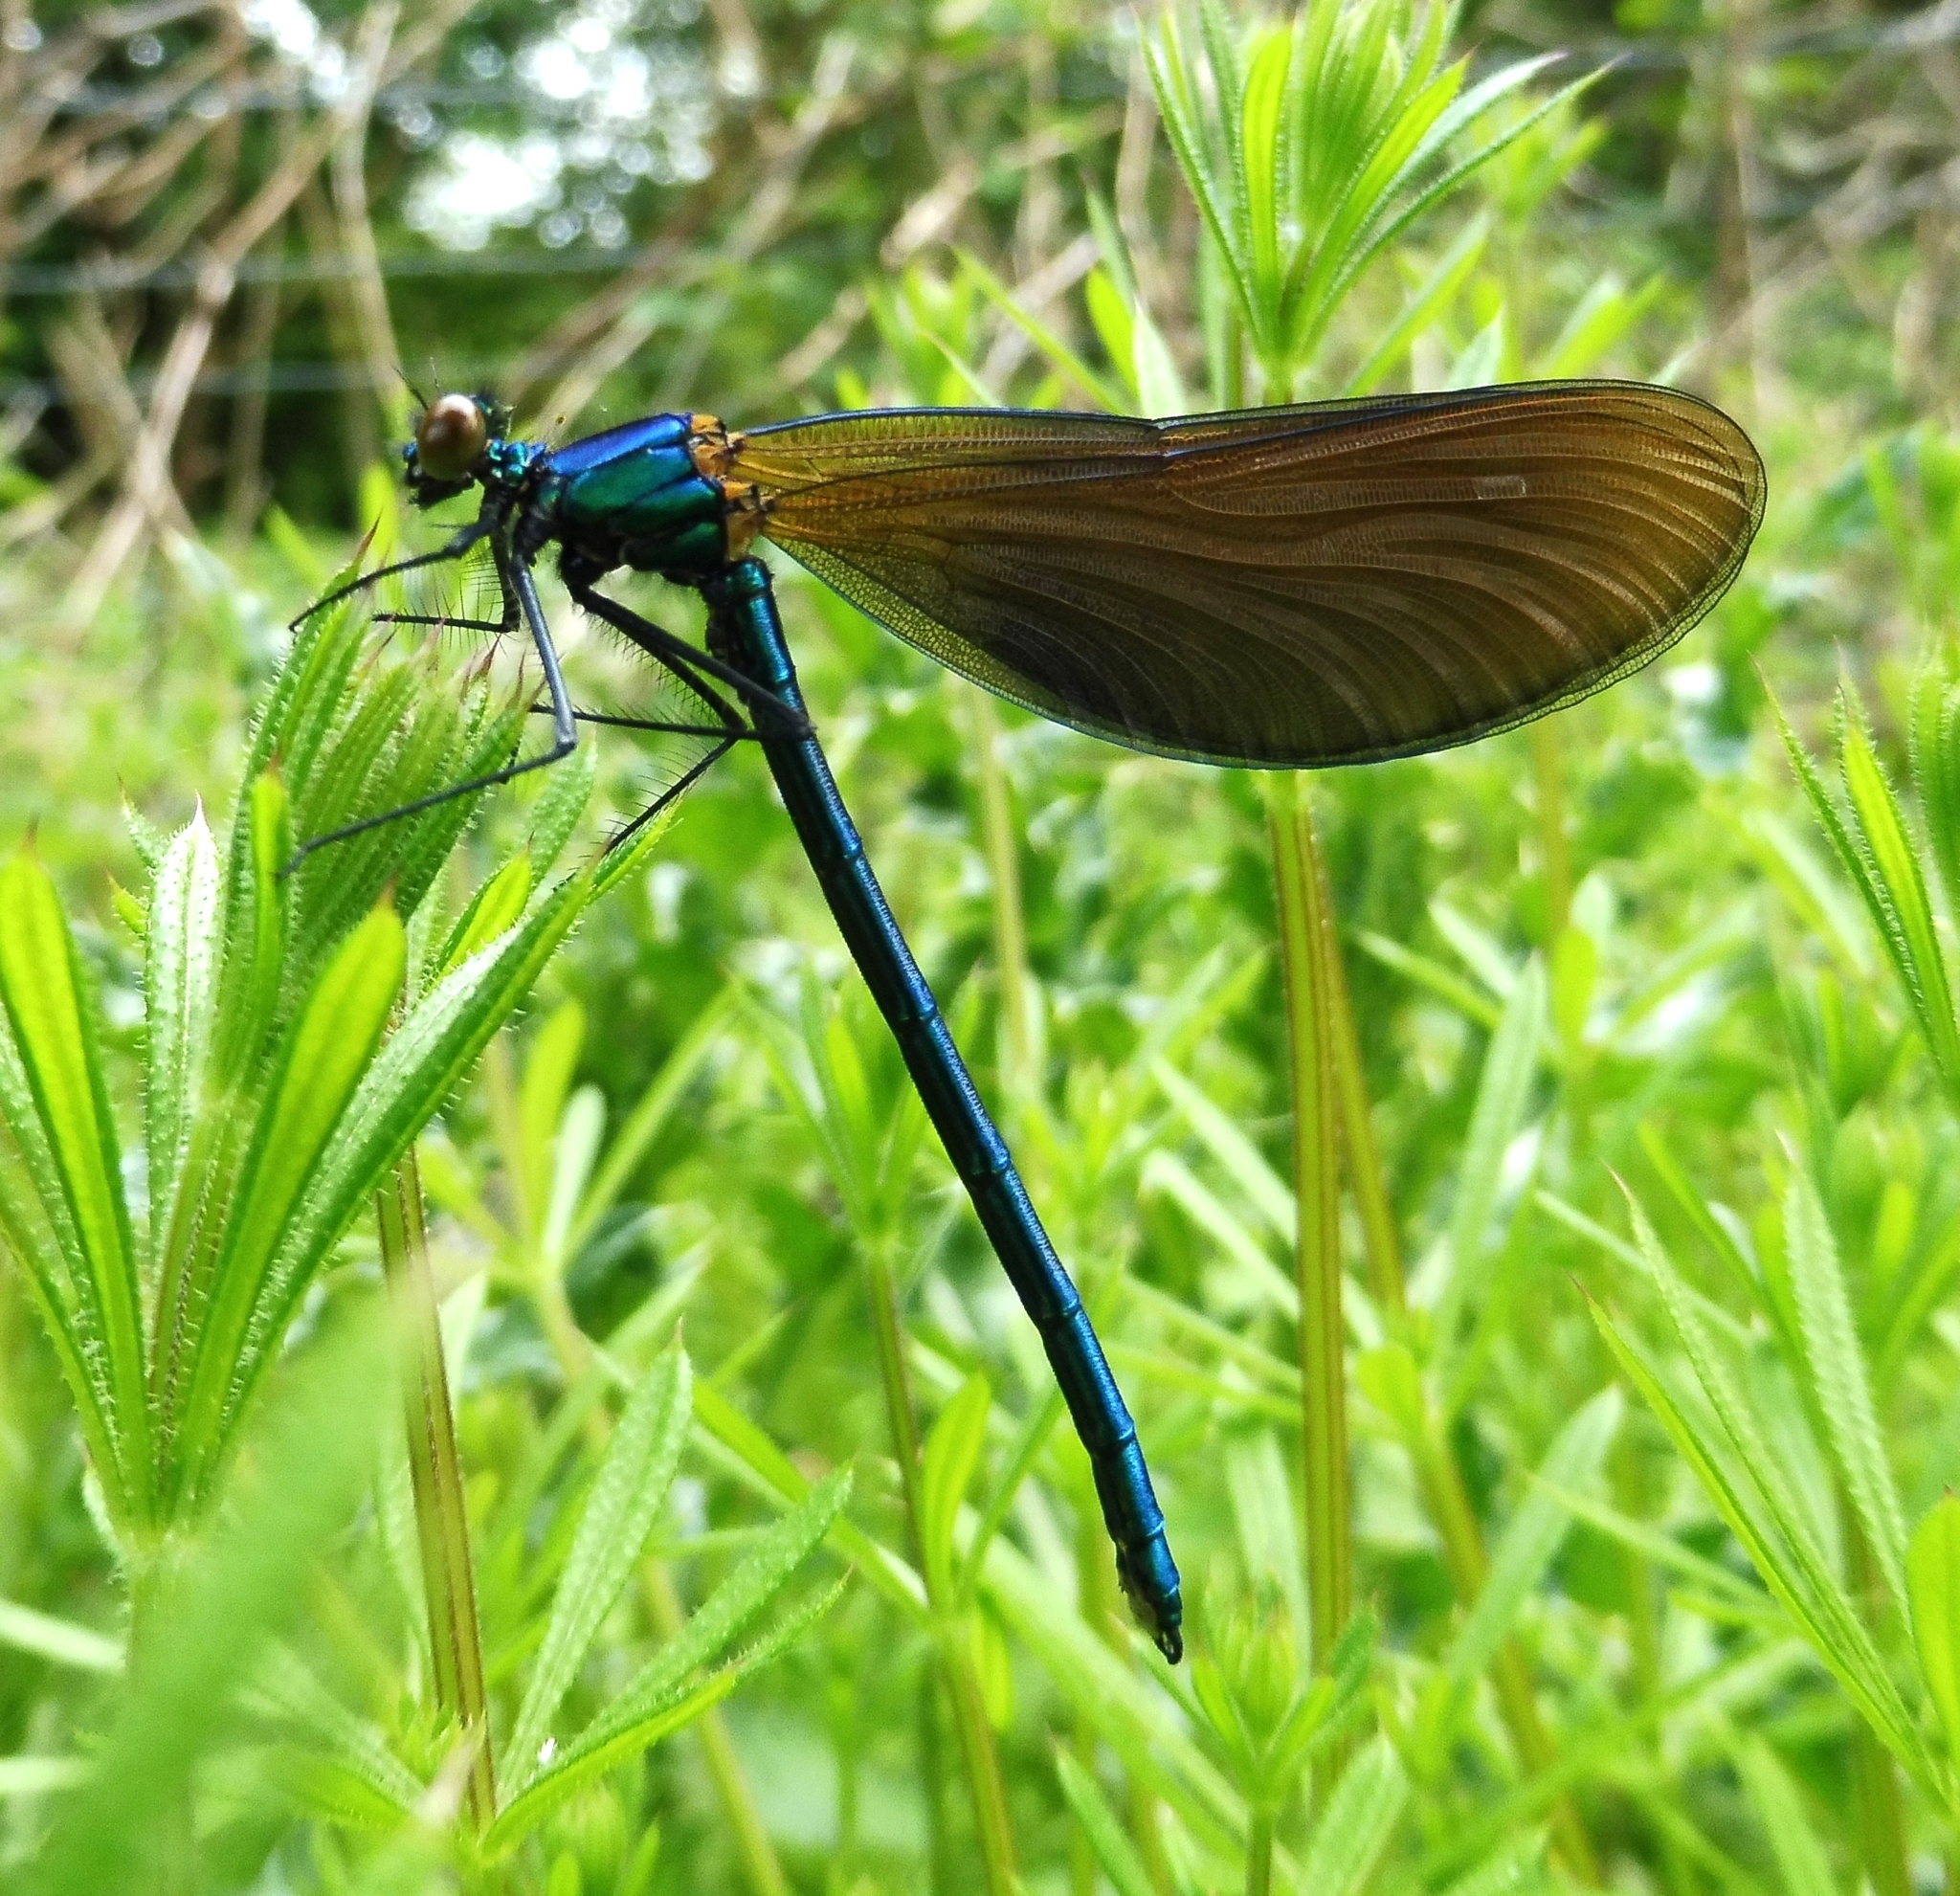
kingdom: Animalia
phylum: Arthropoda
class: Insecta
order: Odonata
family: Calopterygidae
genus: Calopteryx
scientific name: Calopteryx virgo
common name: Beautiful demoiselle
